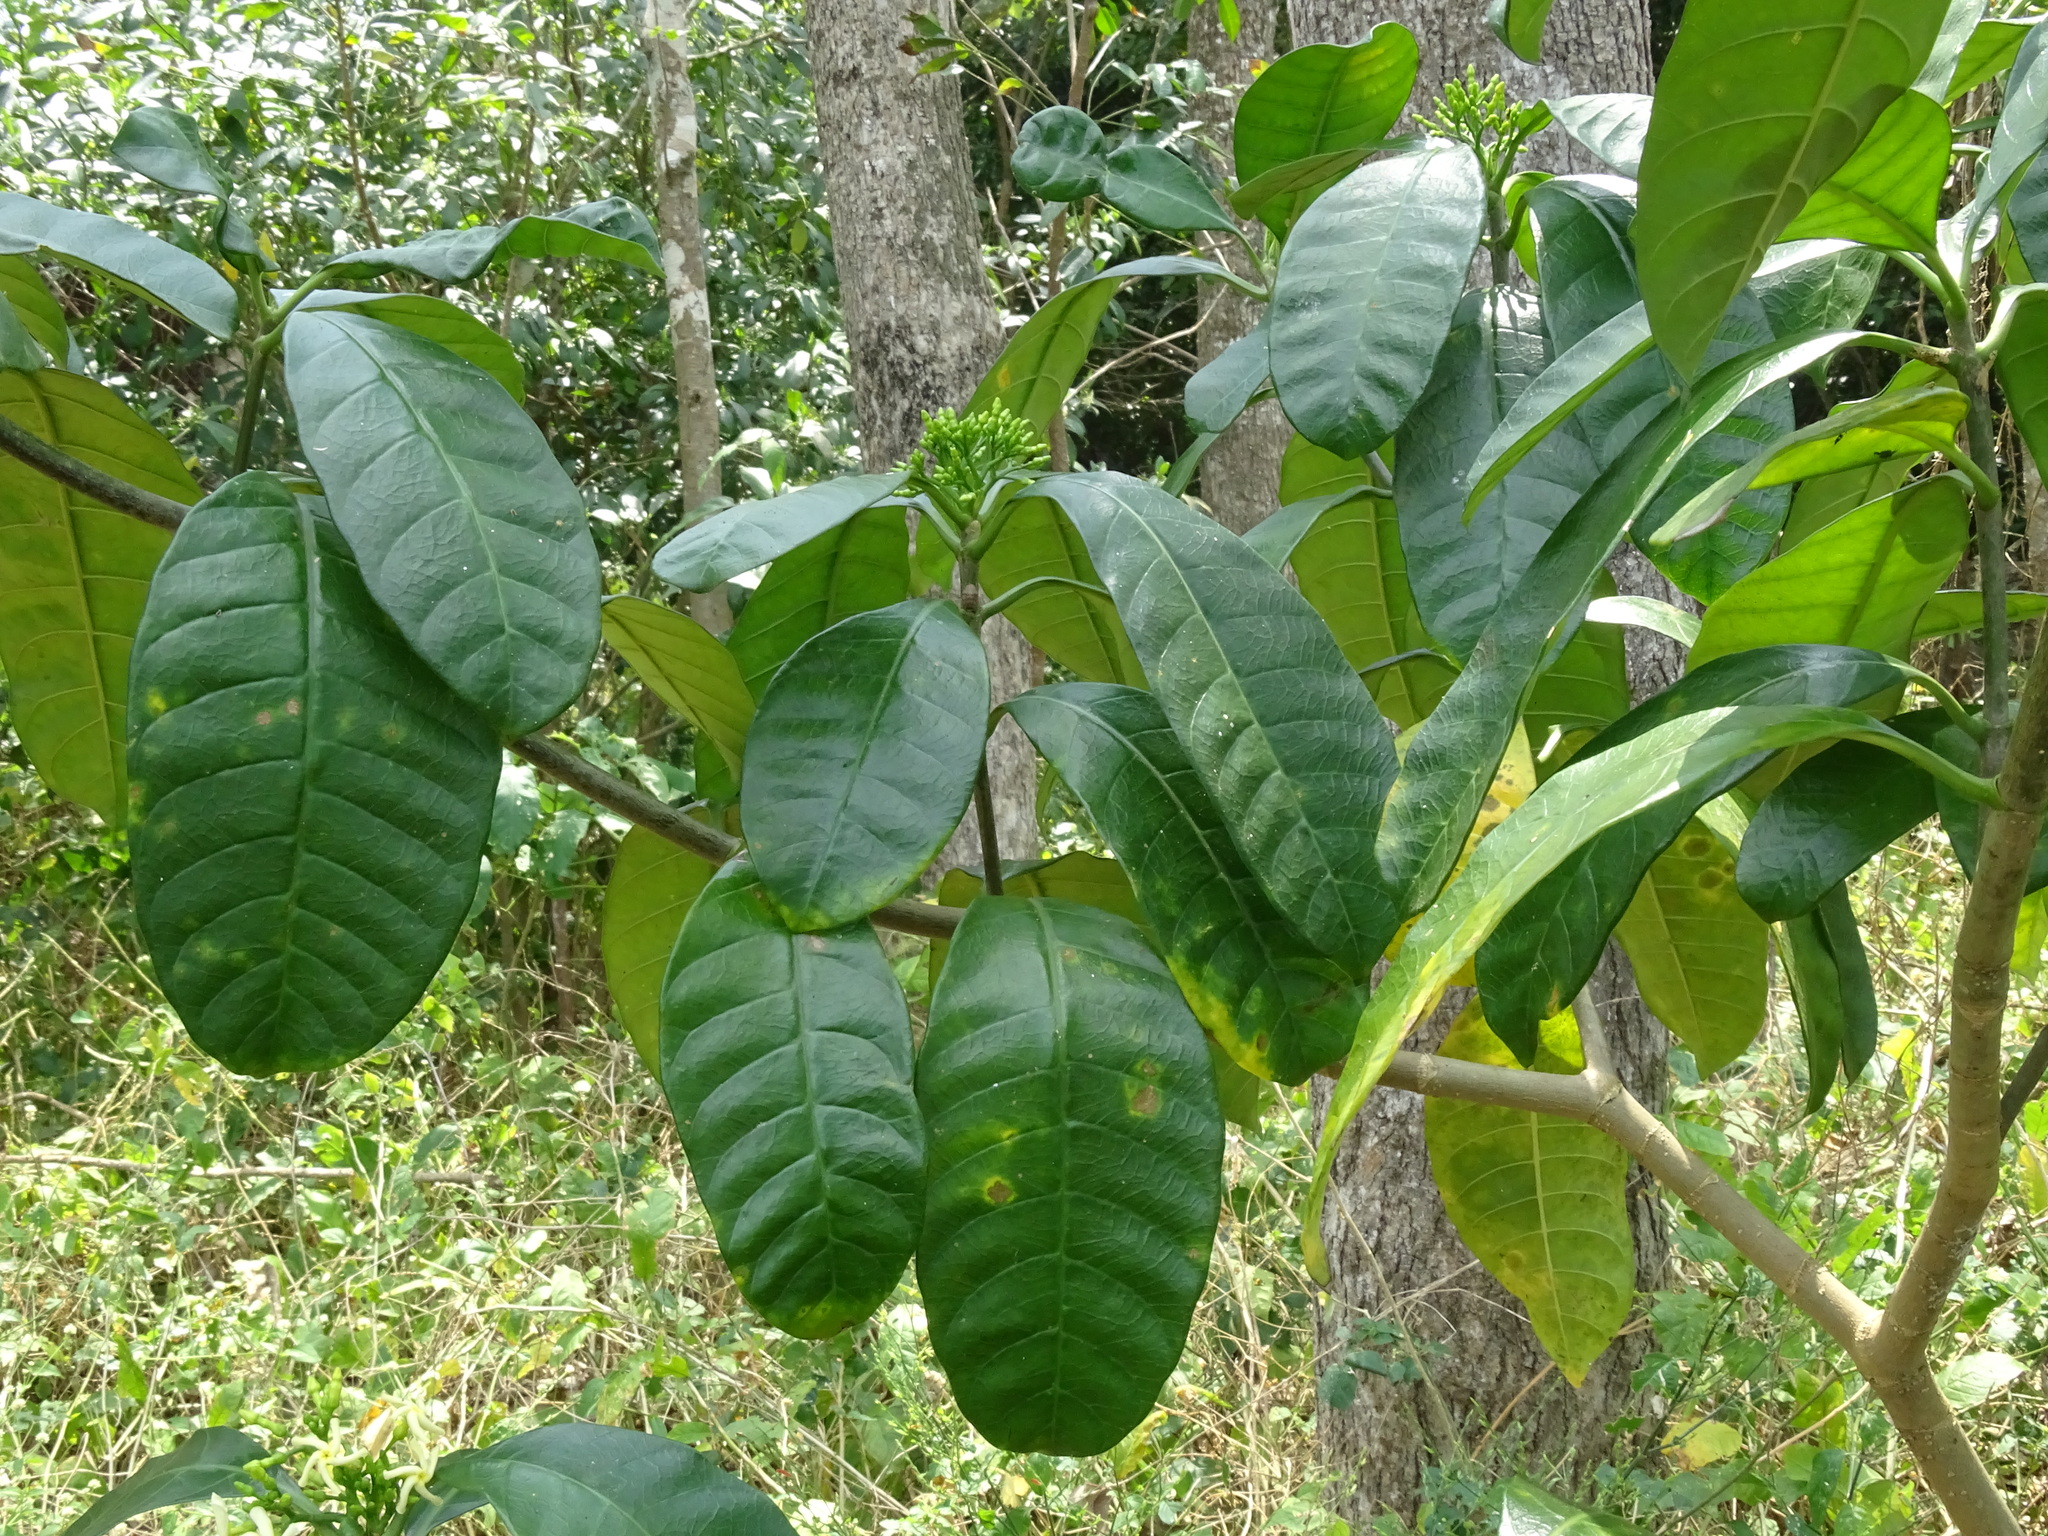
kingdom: Plantae
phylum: Tracheophyta
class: Magnoliopsida
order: Gentianales
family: Apocynaceae
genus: Tabernaemontana
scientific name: Tabernaemontana alba
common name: White milkwood
